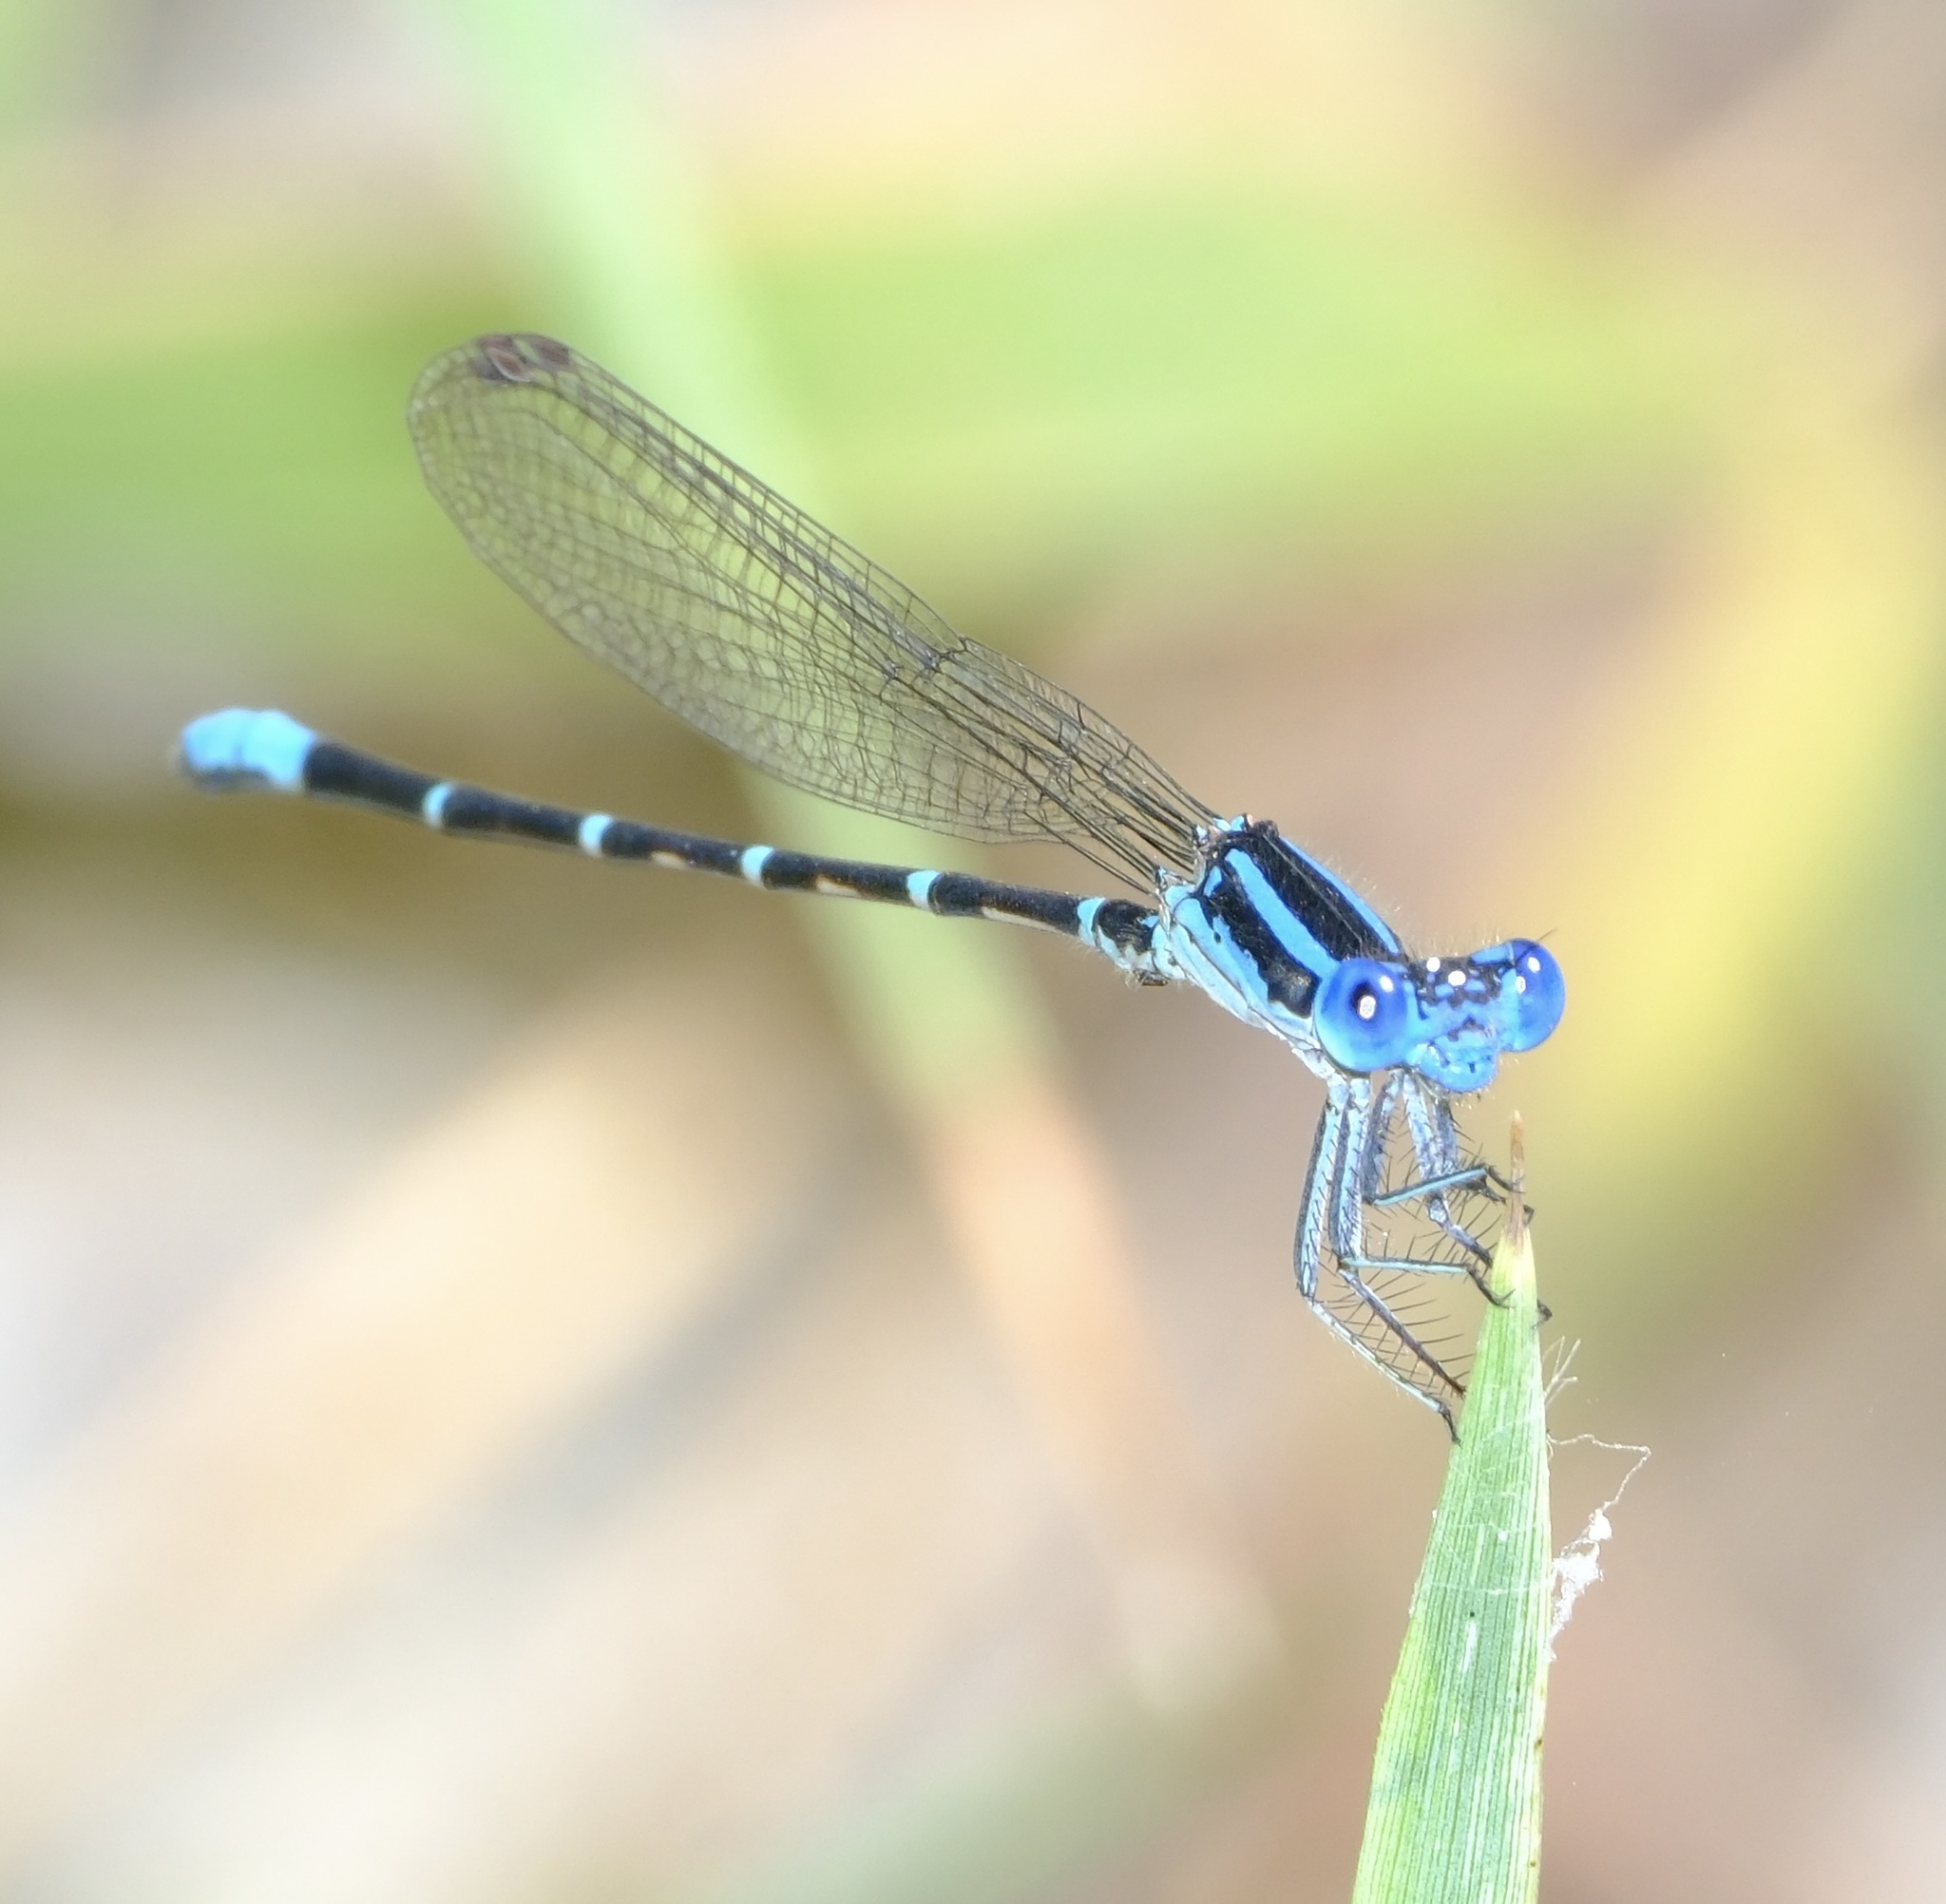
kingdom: Animalia
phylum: Arthropoda
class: Insecta
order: Odonata
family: Coenagrionidae
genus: Argia
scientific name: Argia sedula
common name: Blue-ringed dancer
